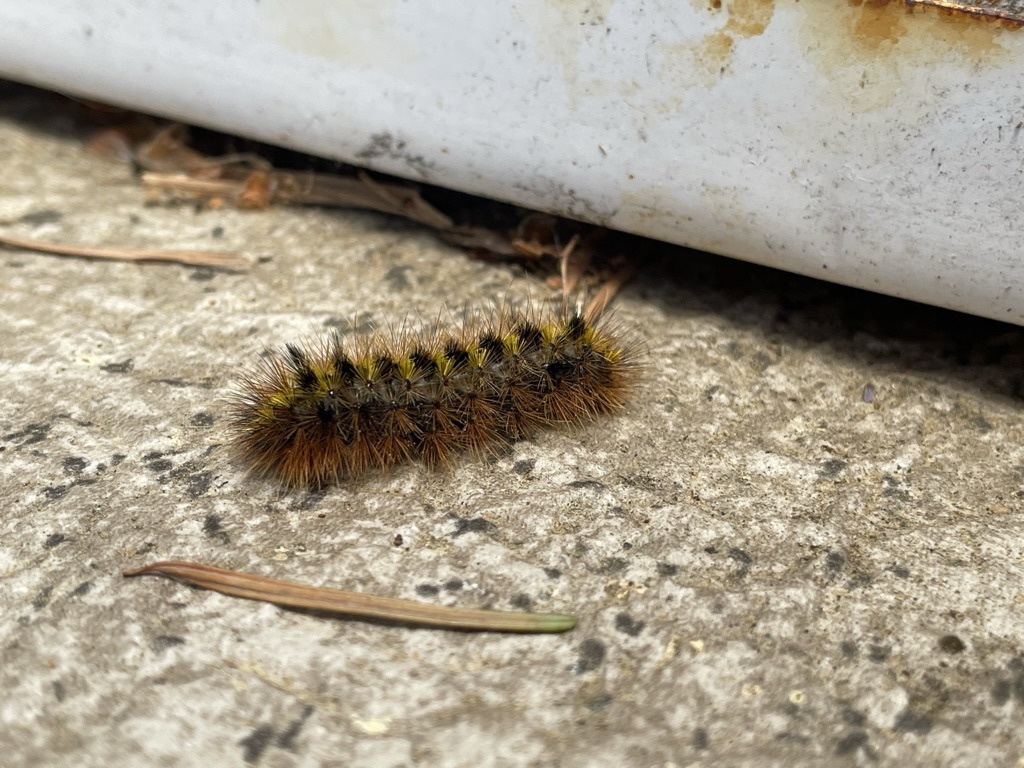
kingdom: Animalia
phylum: Arthropoda
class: Insecta
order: Lepidoptera
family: Erebidae
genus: Lophocampa
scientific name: Lophocampa argentata
